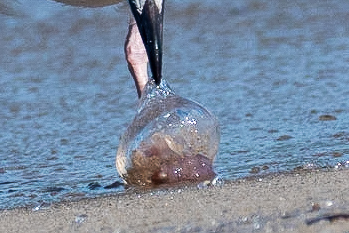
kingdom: Animalia
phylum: Cnidaria
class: Scyphozoa
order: Semaeostomeae
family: Pelagiidae
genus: Pelagia
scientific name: Pelagia noctiluca
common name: Mauve stinger
